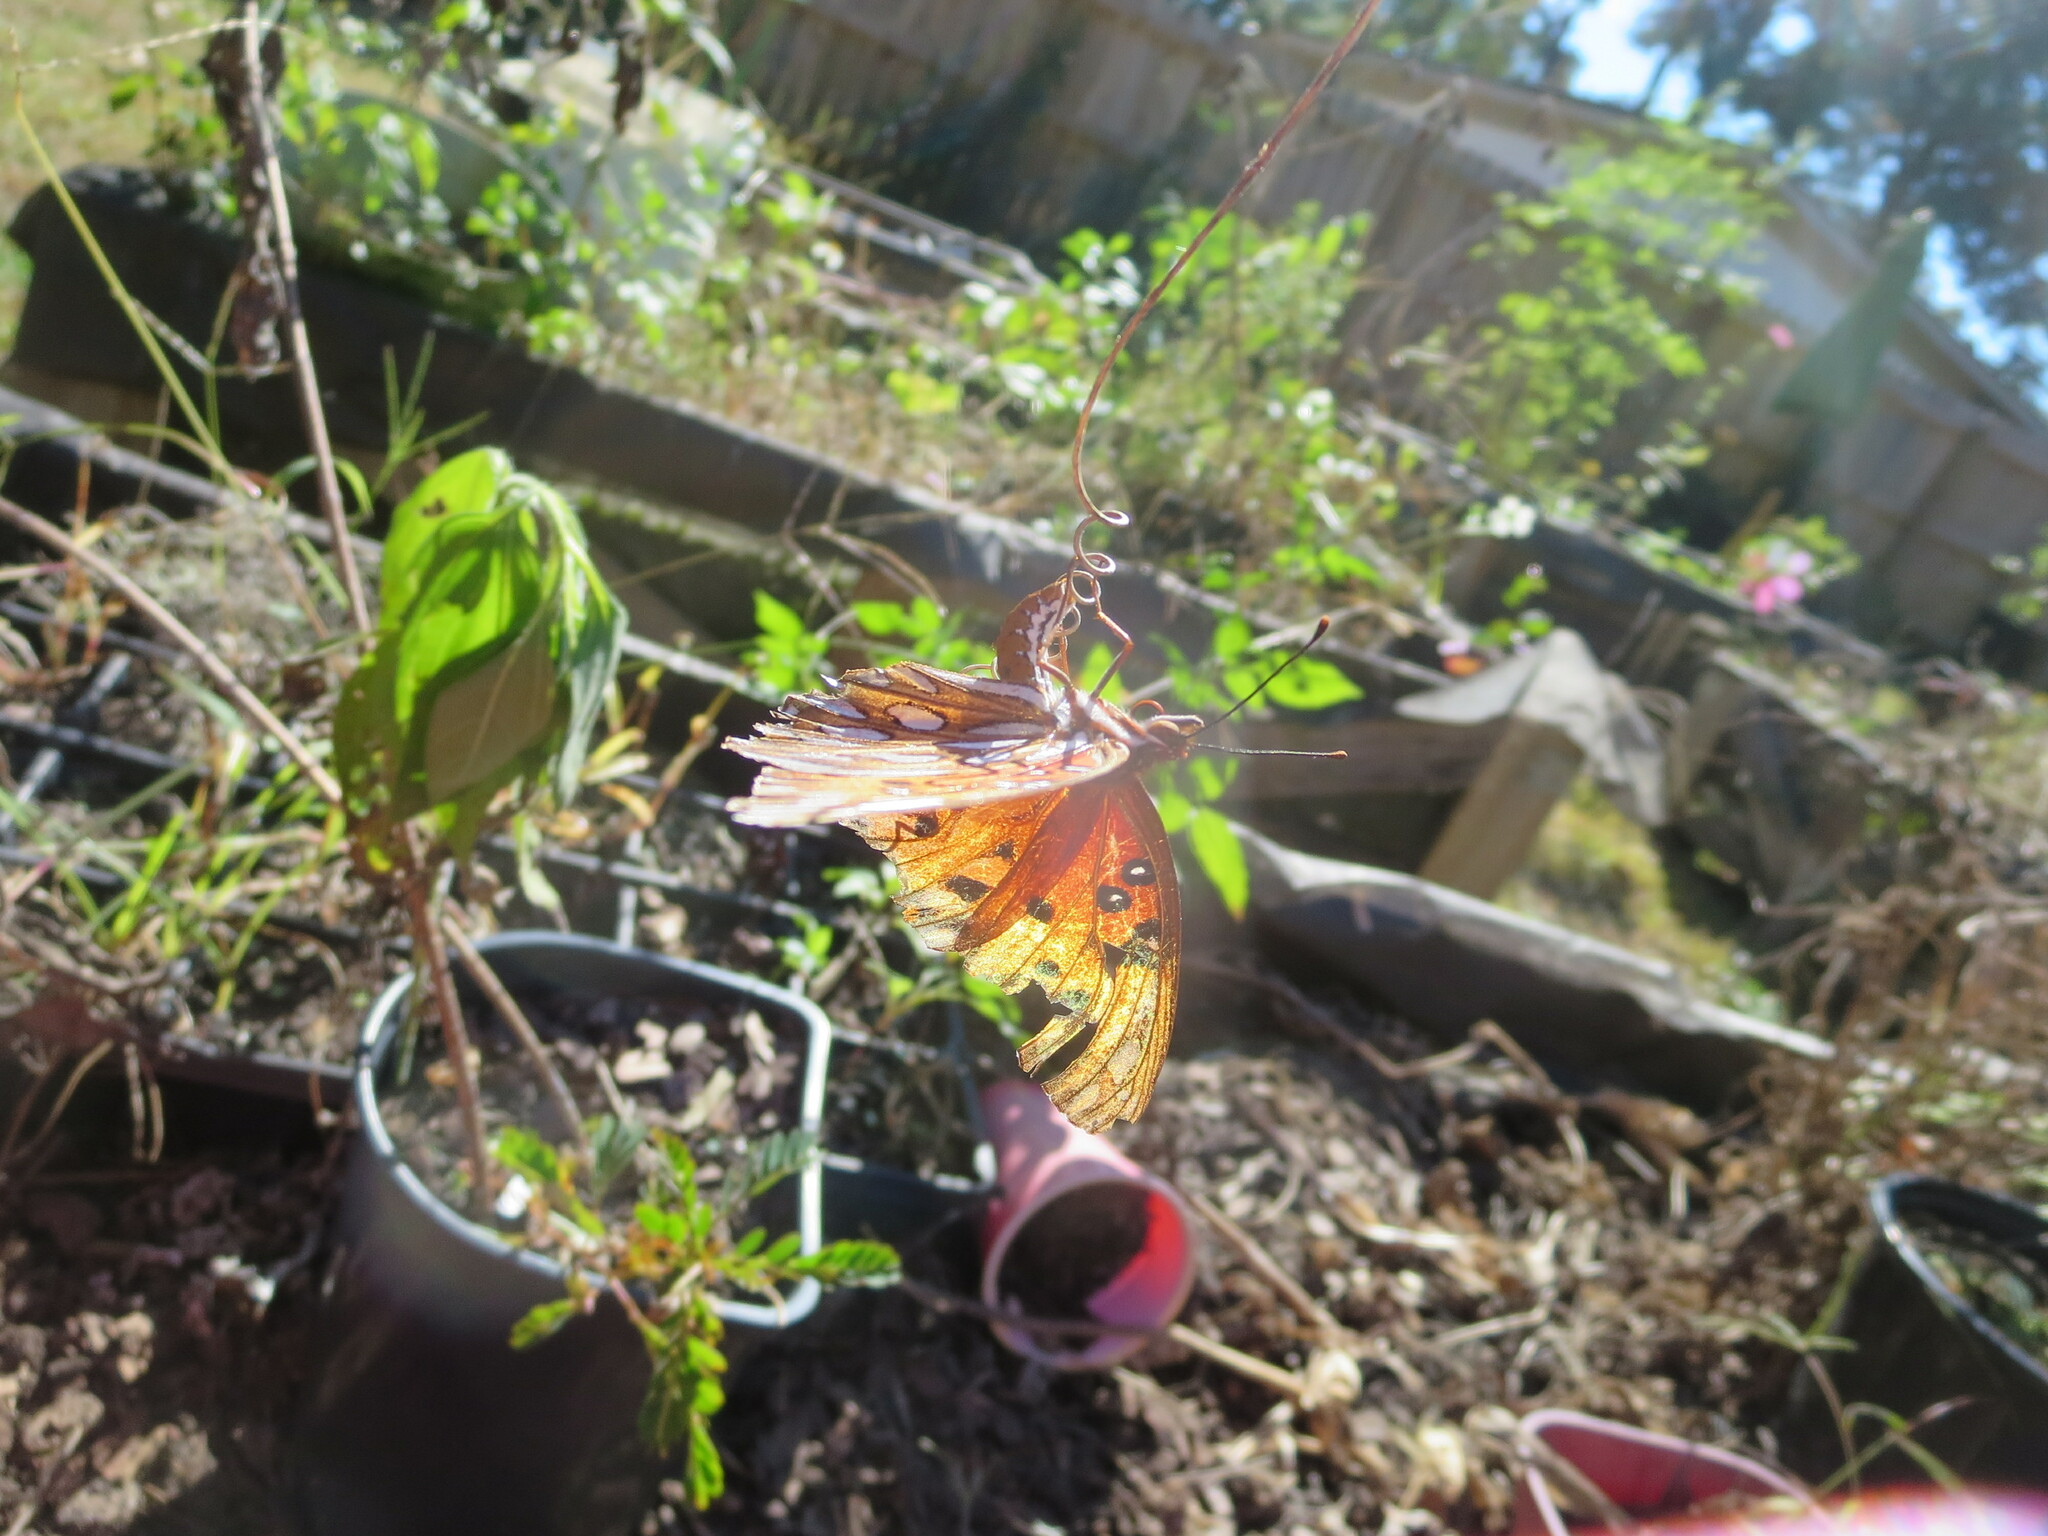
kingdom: Animalia
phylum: Arthropoda
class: Insecta
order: Lepidoptera
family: Nymphalidae
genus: Dione
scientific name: Dione vanillae
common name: Gulf fritillary
